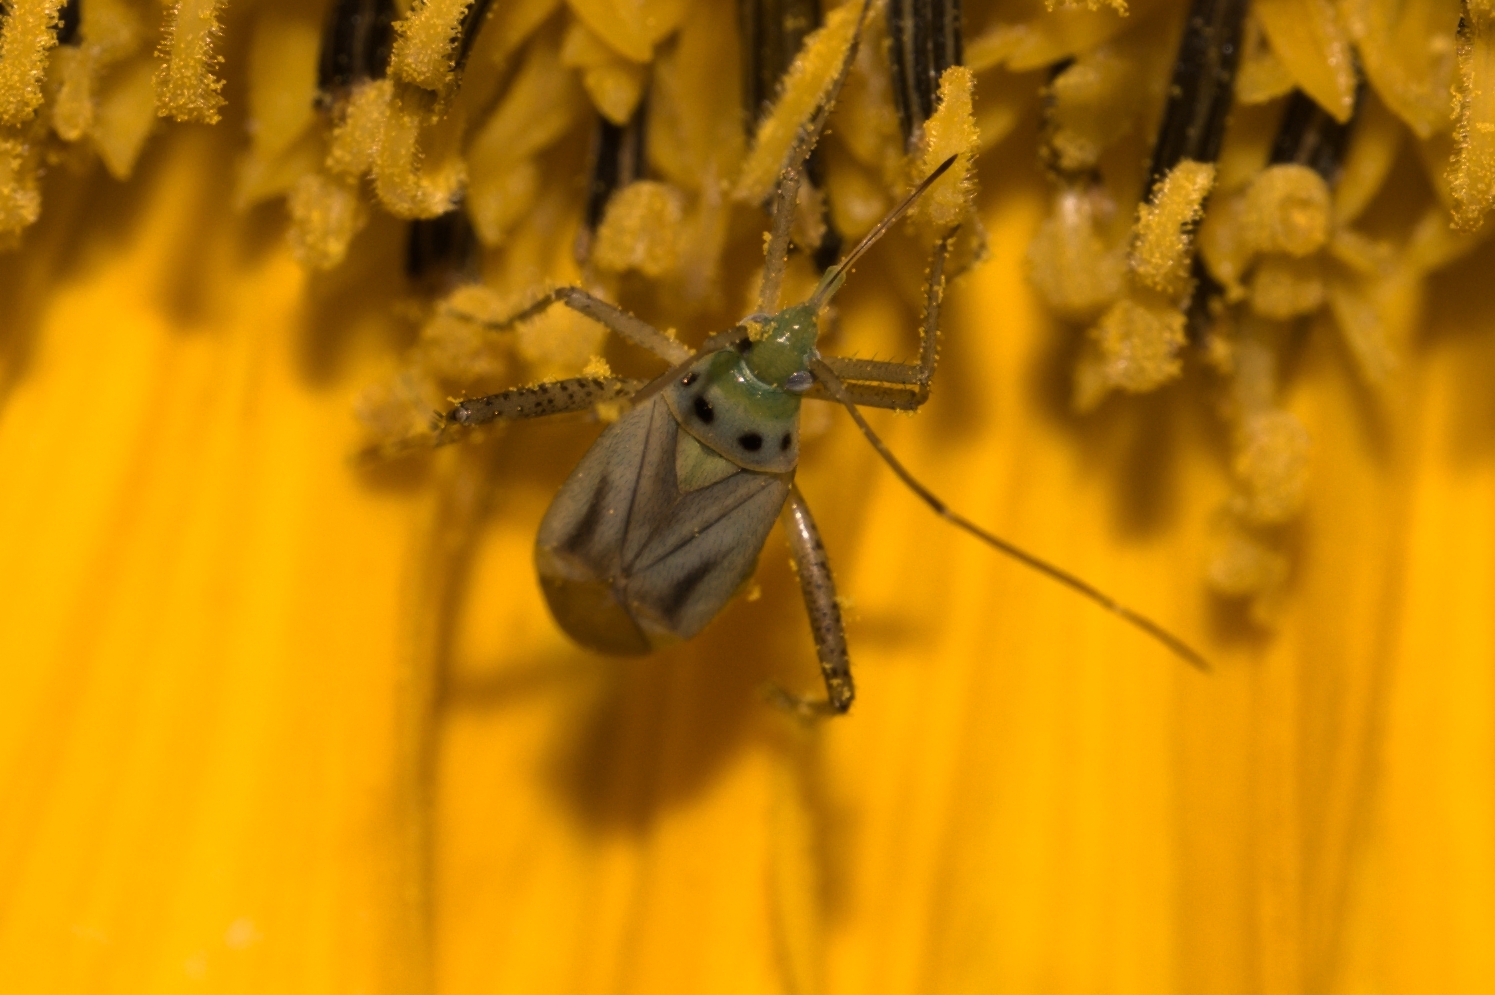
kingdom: Animalia
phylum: Arthropoda
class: Insecta
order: Hemiptera
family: Miridae
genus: Adelphocoris
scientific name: Adelphocoris quadripunctatus
